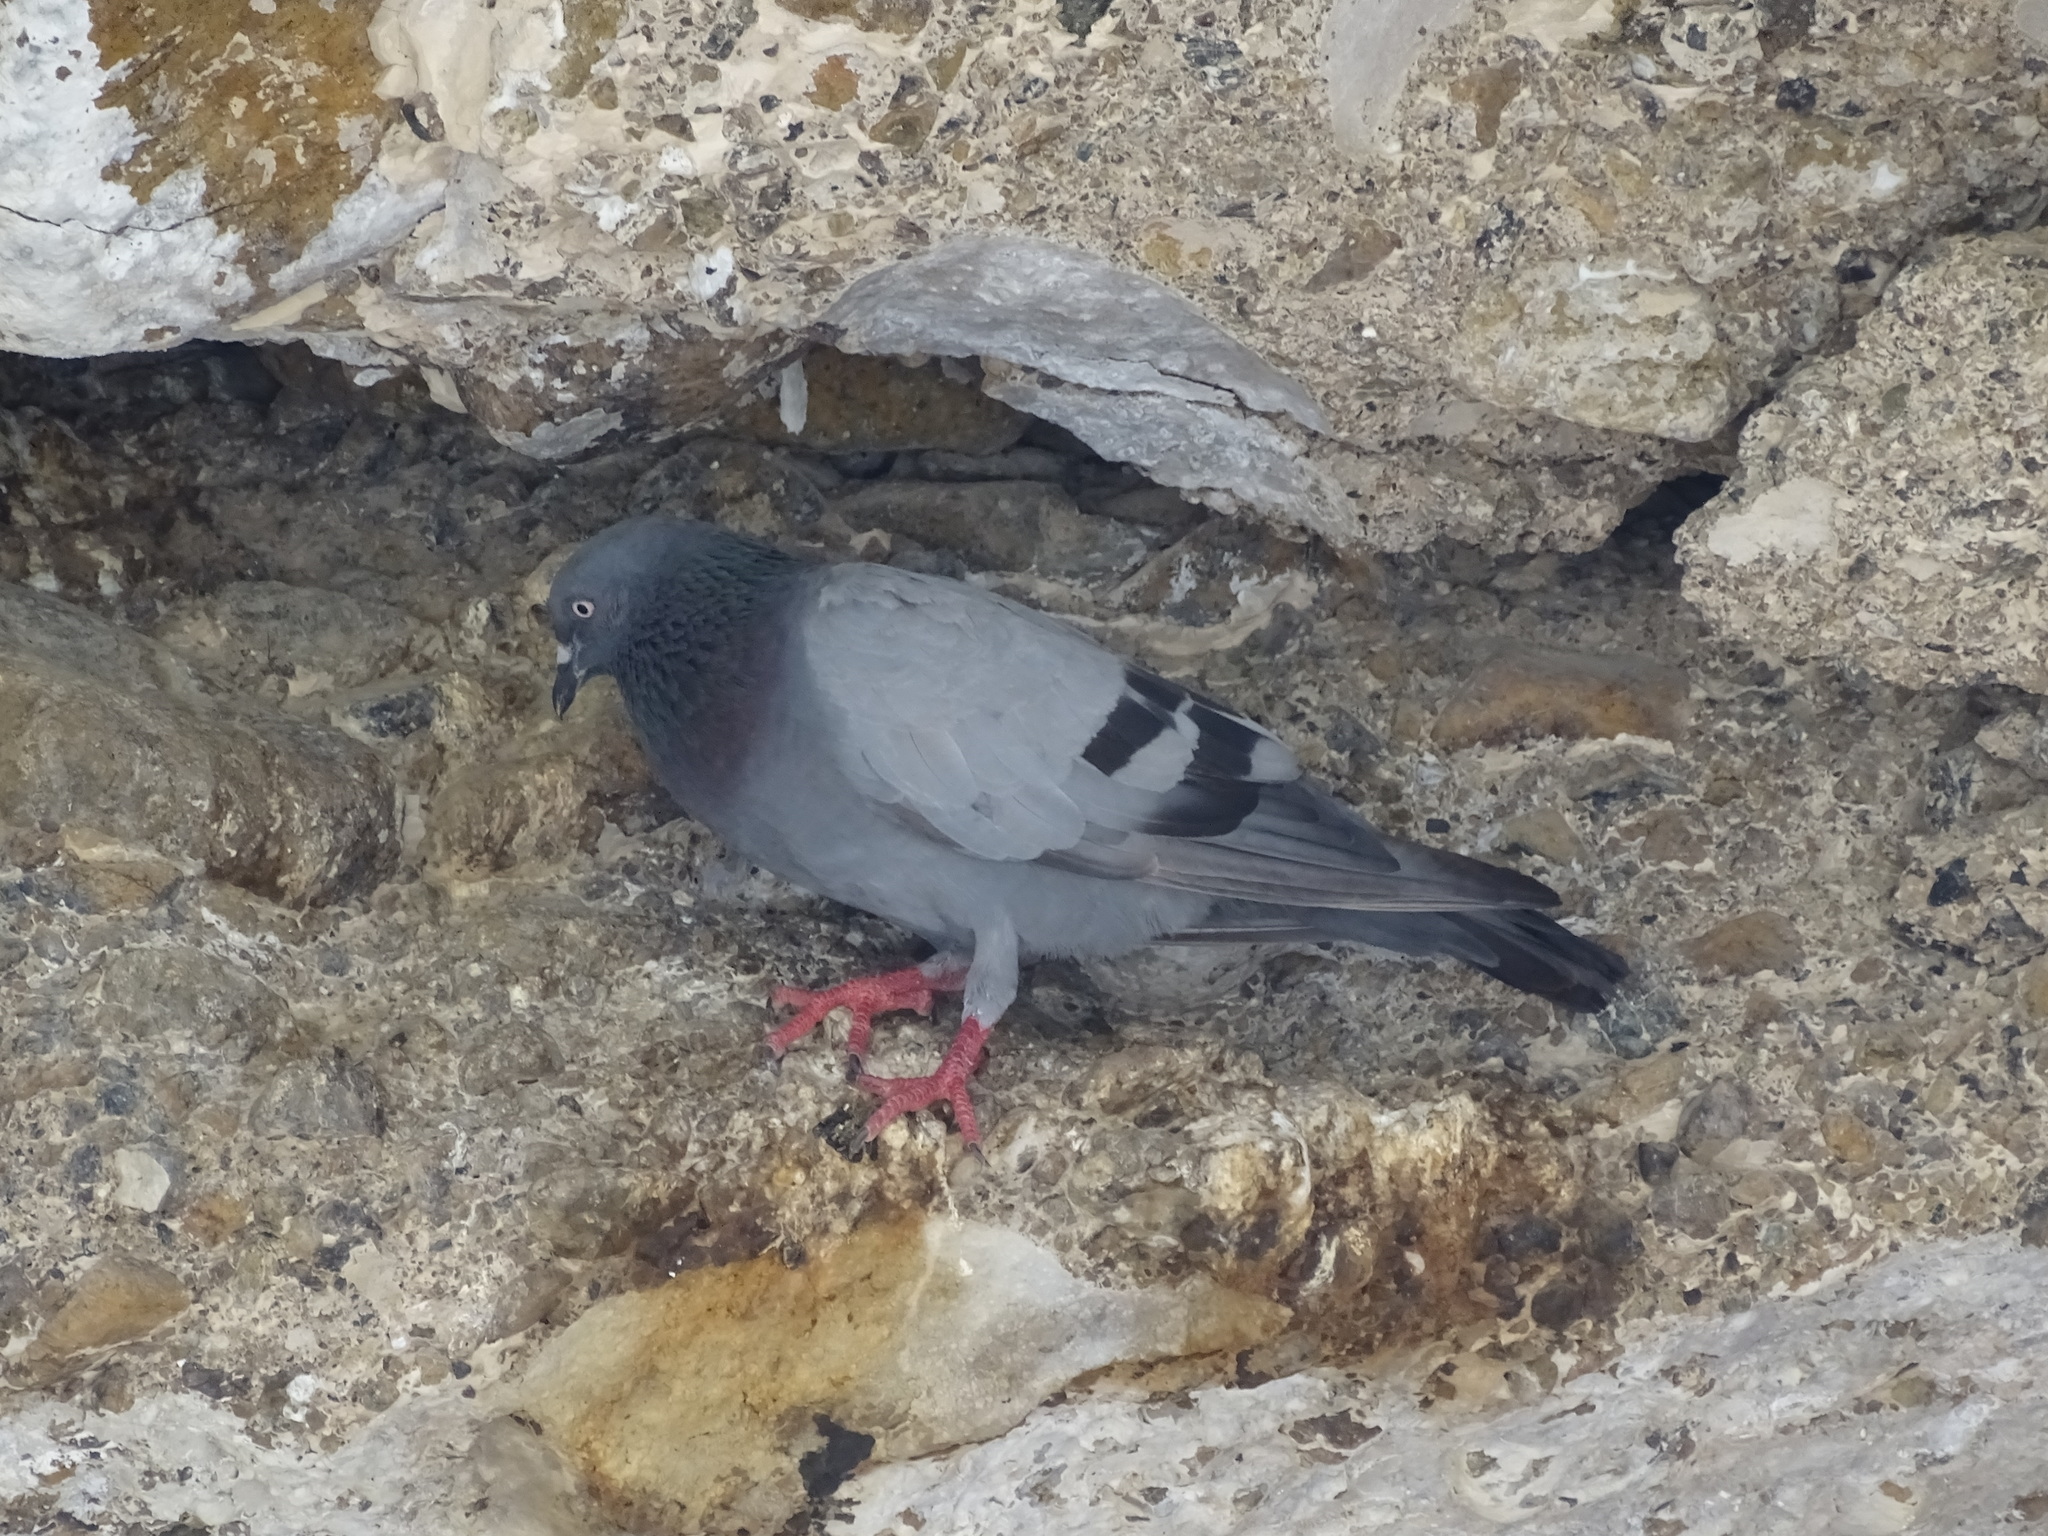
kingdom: Animalia
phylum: Chordata
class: Aves
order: Columbiformes
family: Columbidae
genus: Columba
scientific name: Columba livia
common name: Rock pigeon
